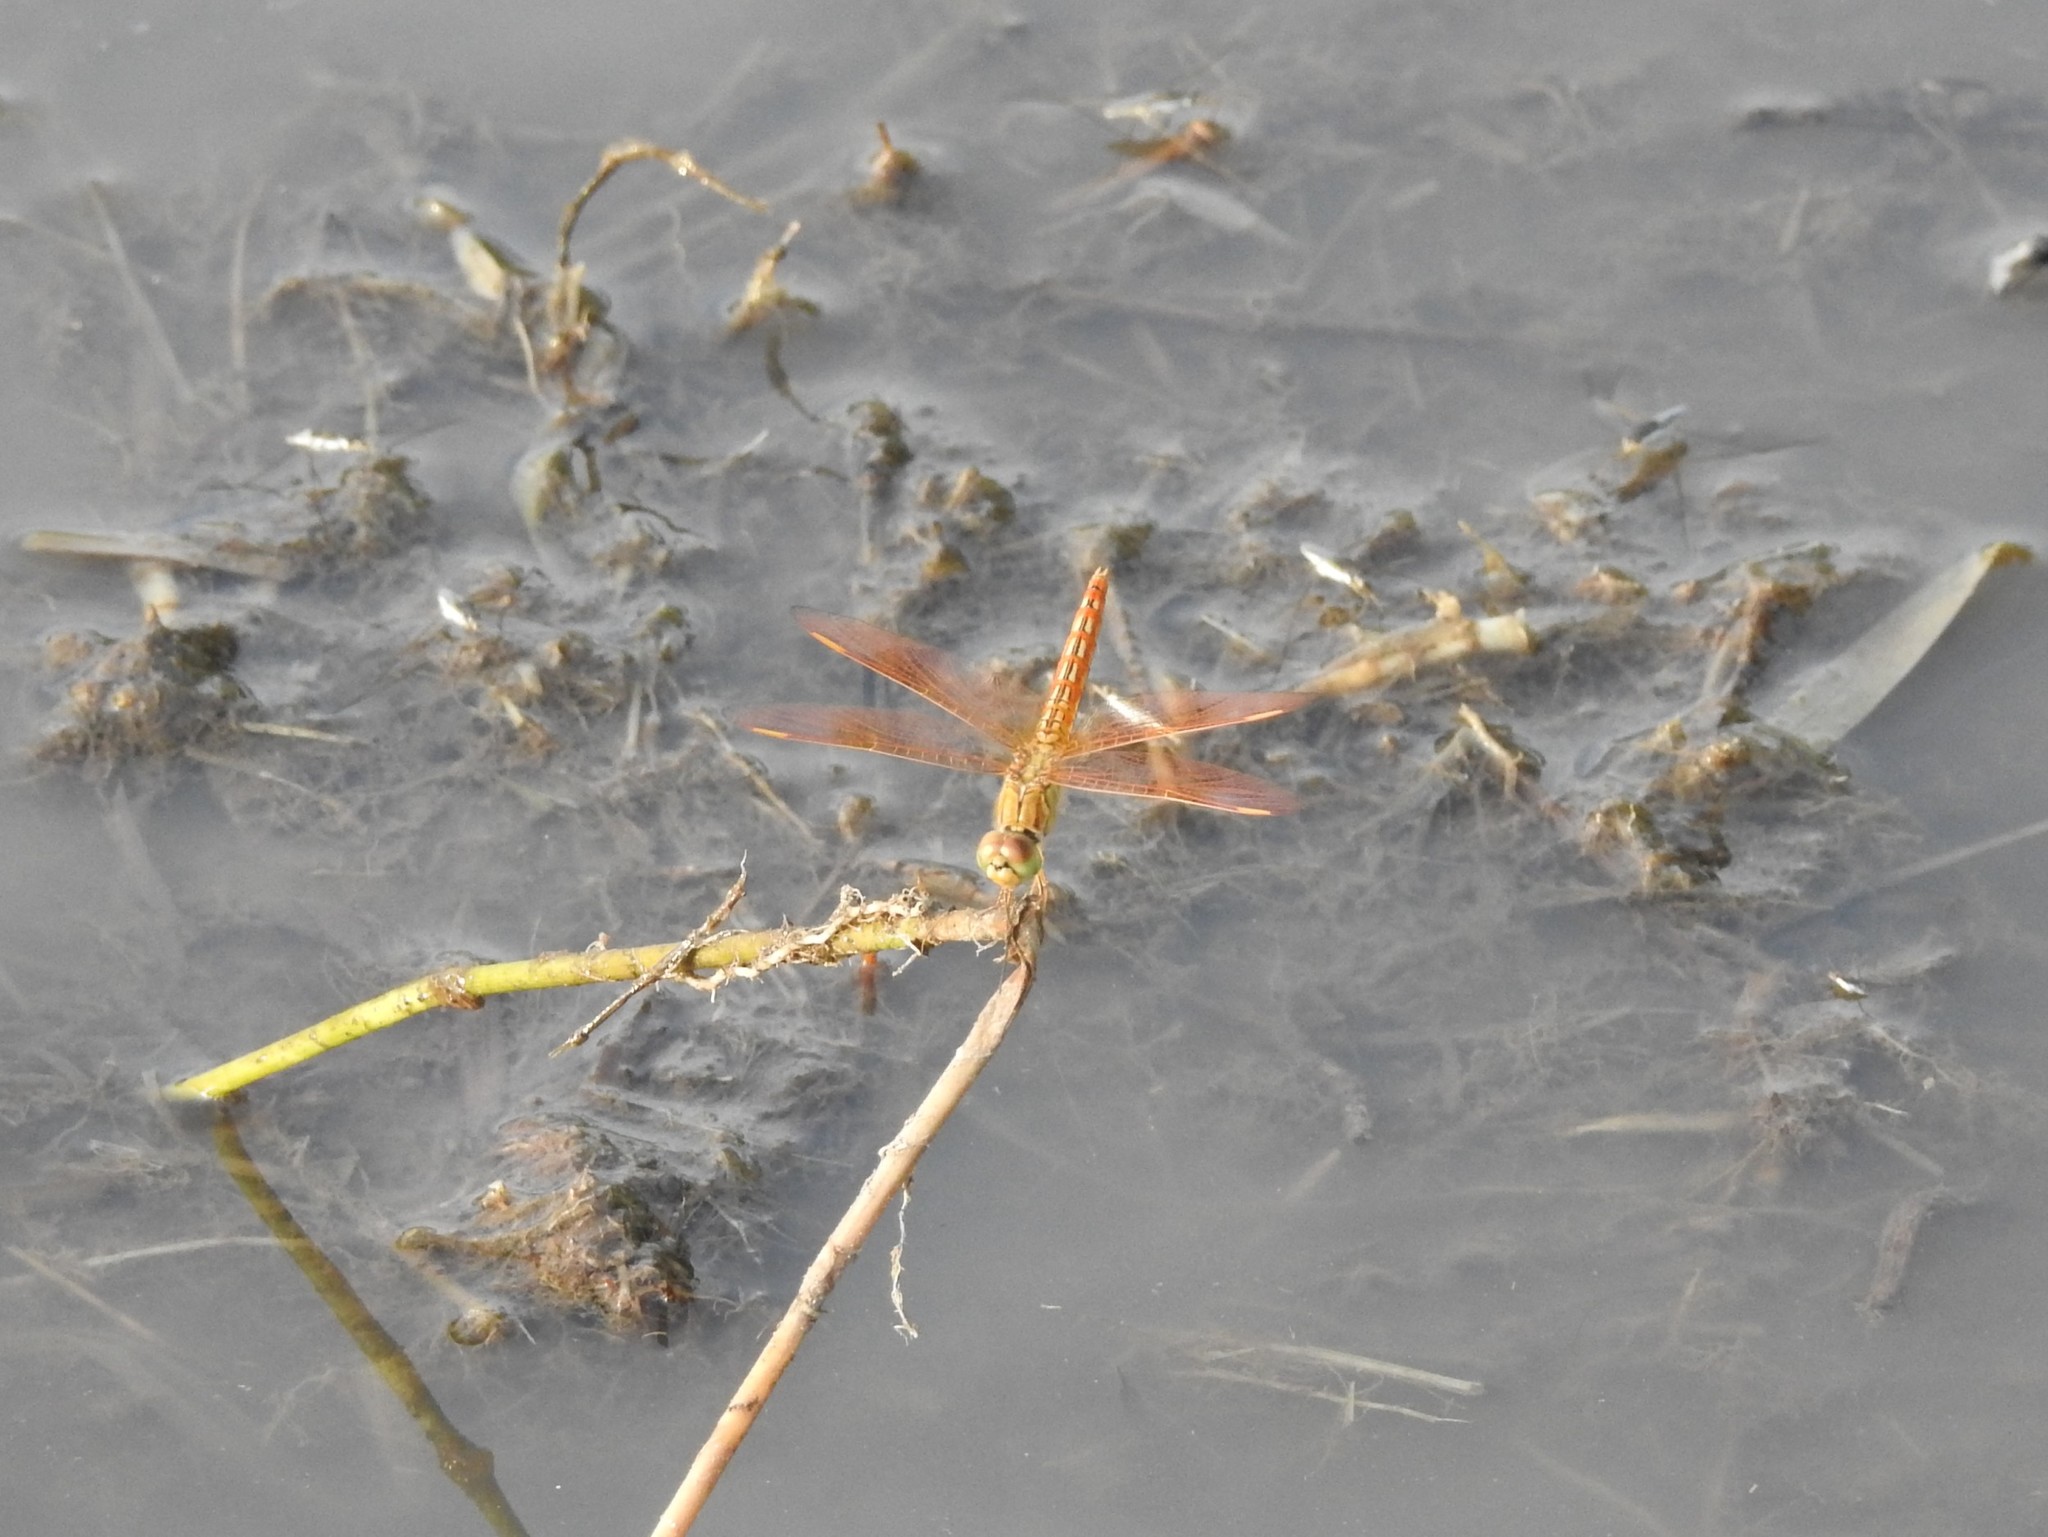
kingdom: Animalia
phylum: Arthropoda
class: Insecta
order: Odonata
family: Libellulidae
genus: Brachythemis
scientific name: Brachythemis contaminata
